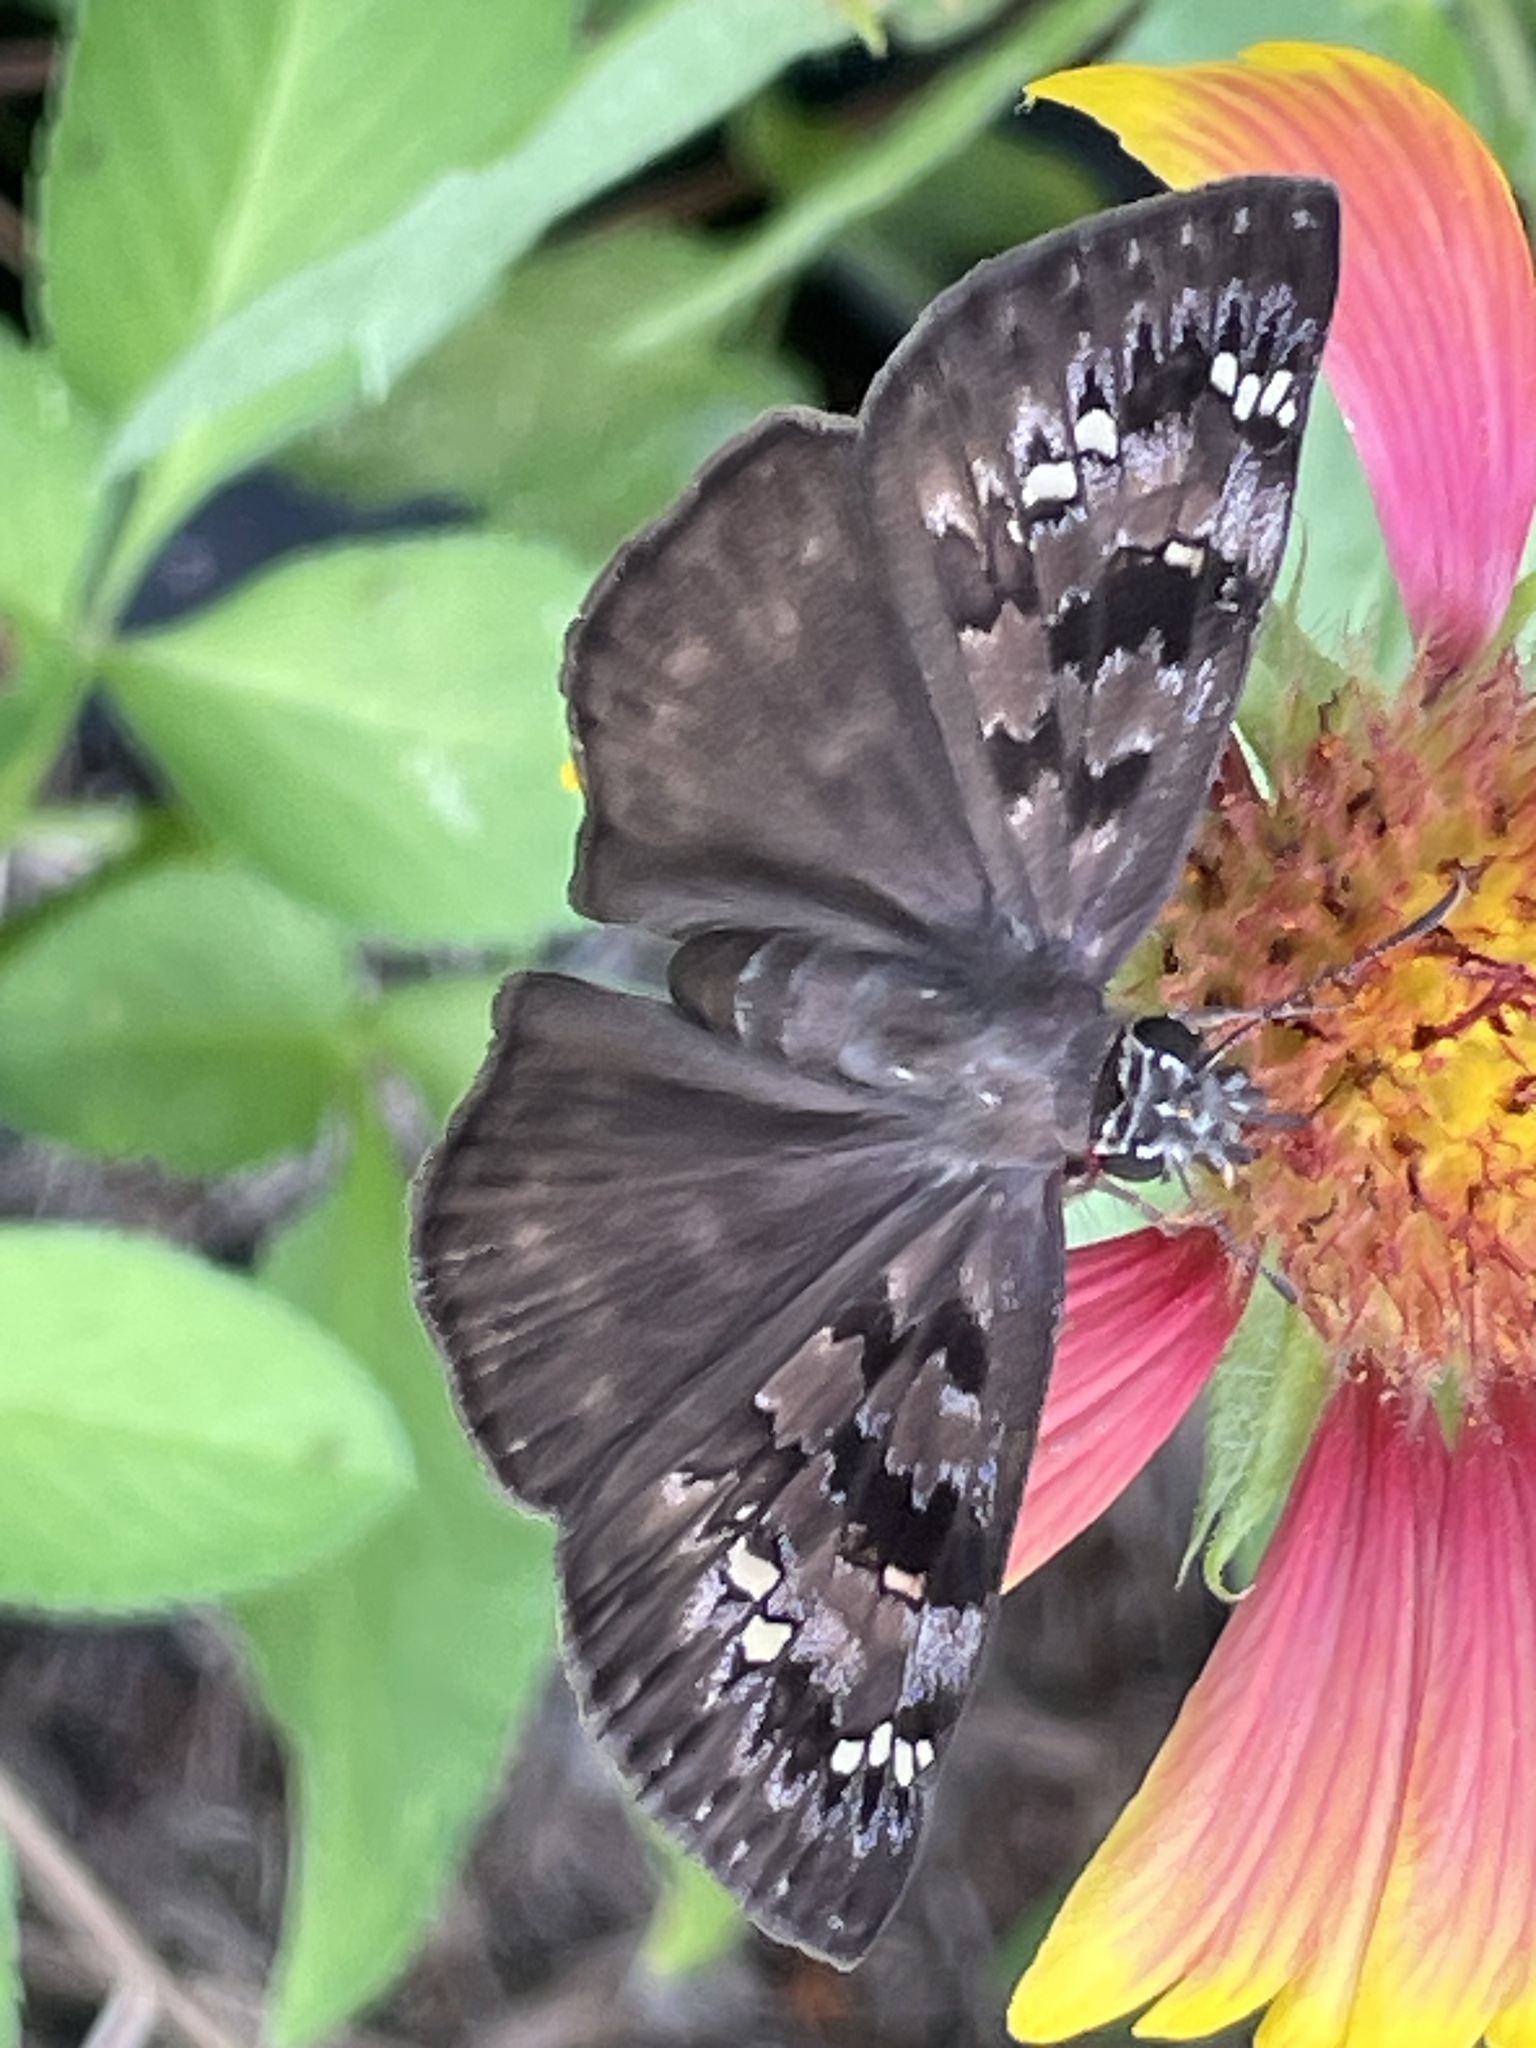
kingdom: Animalia
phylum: Arthropoda
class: Insecta
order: Lepidoptera
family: Hesperiidae
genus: Erynnis
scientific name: Erynnis horatius
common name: Horace's duskywing
